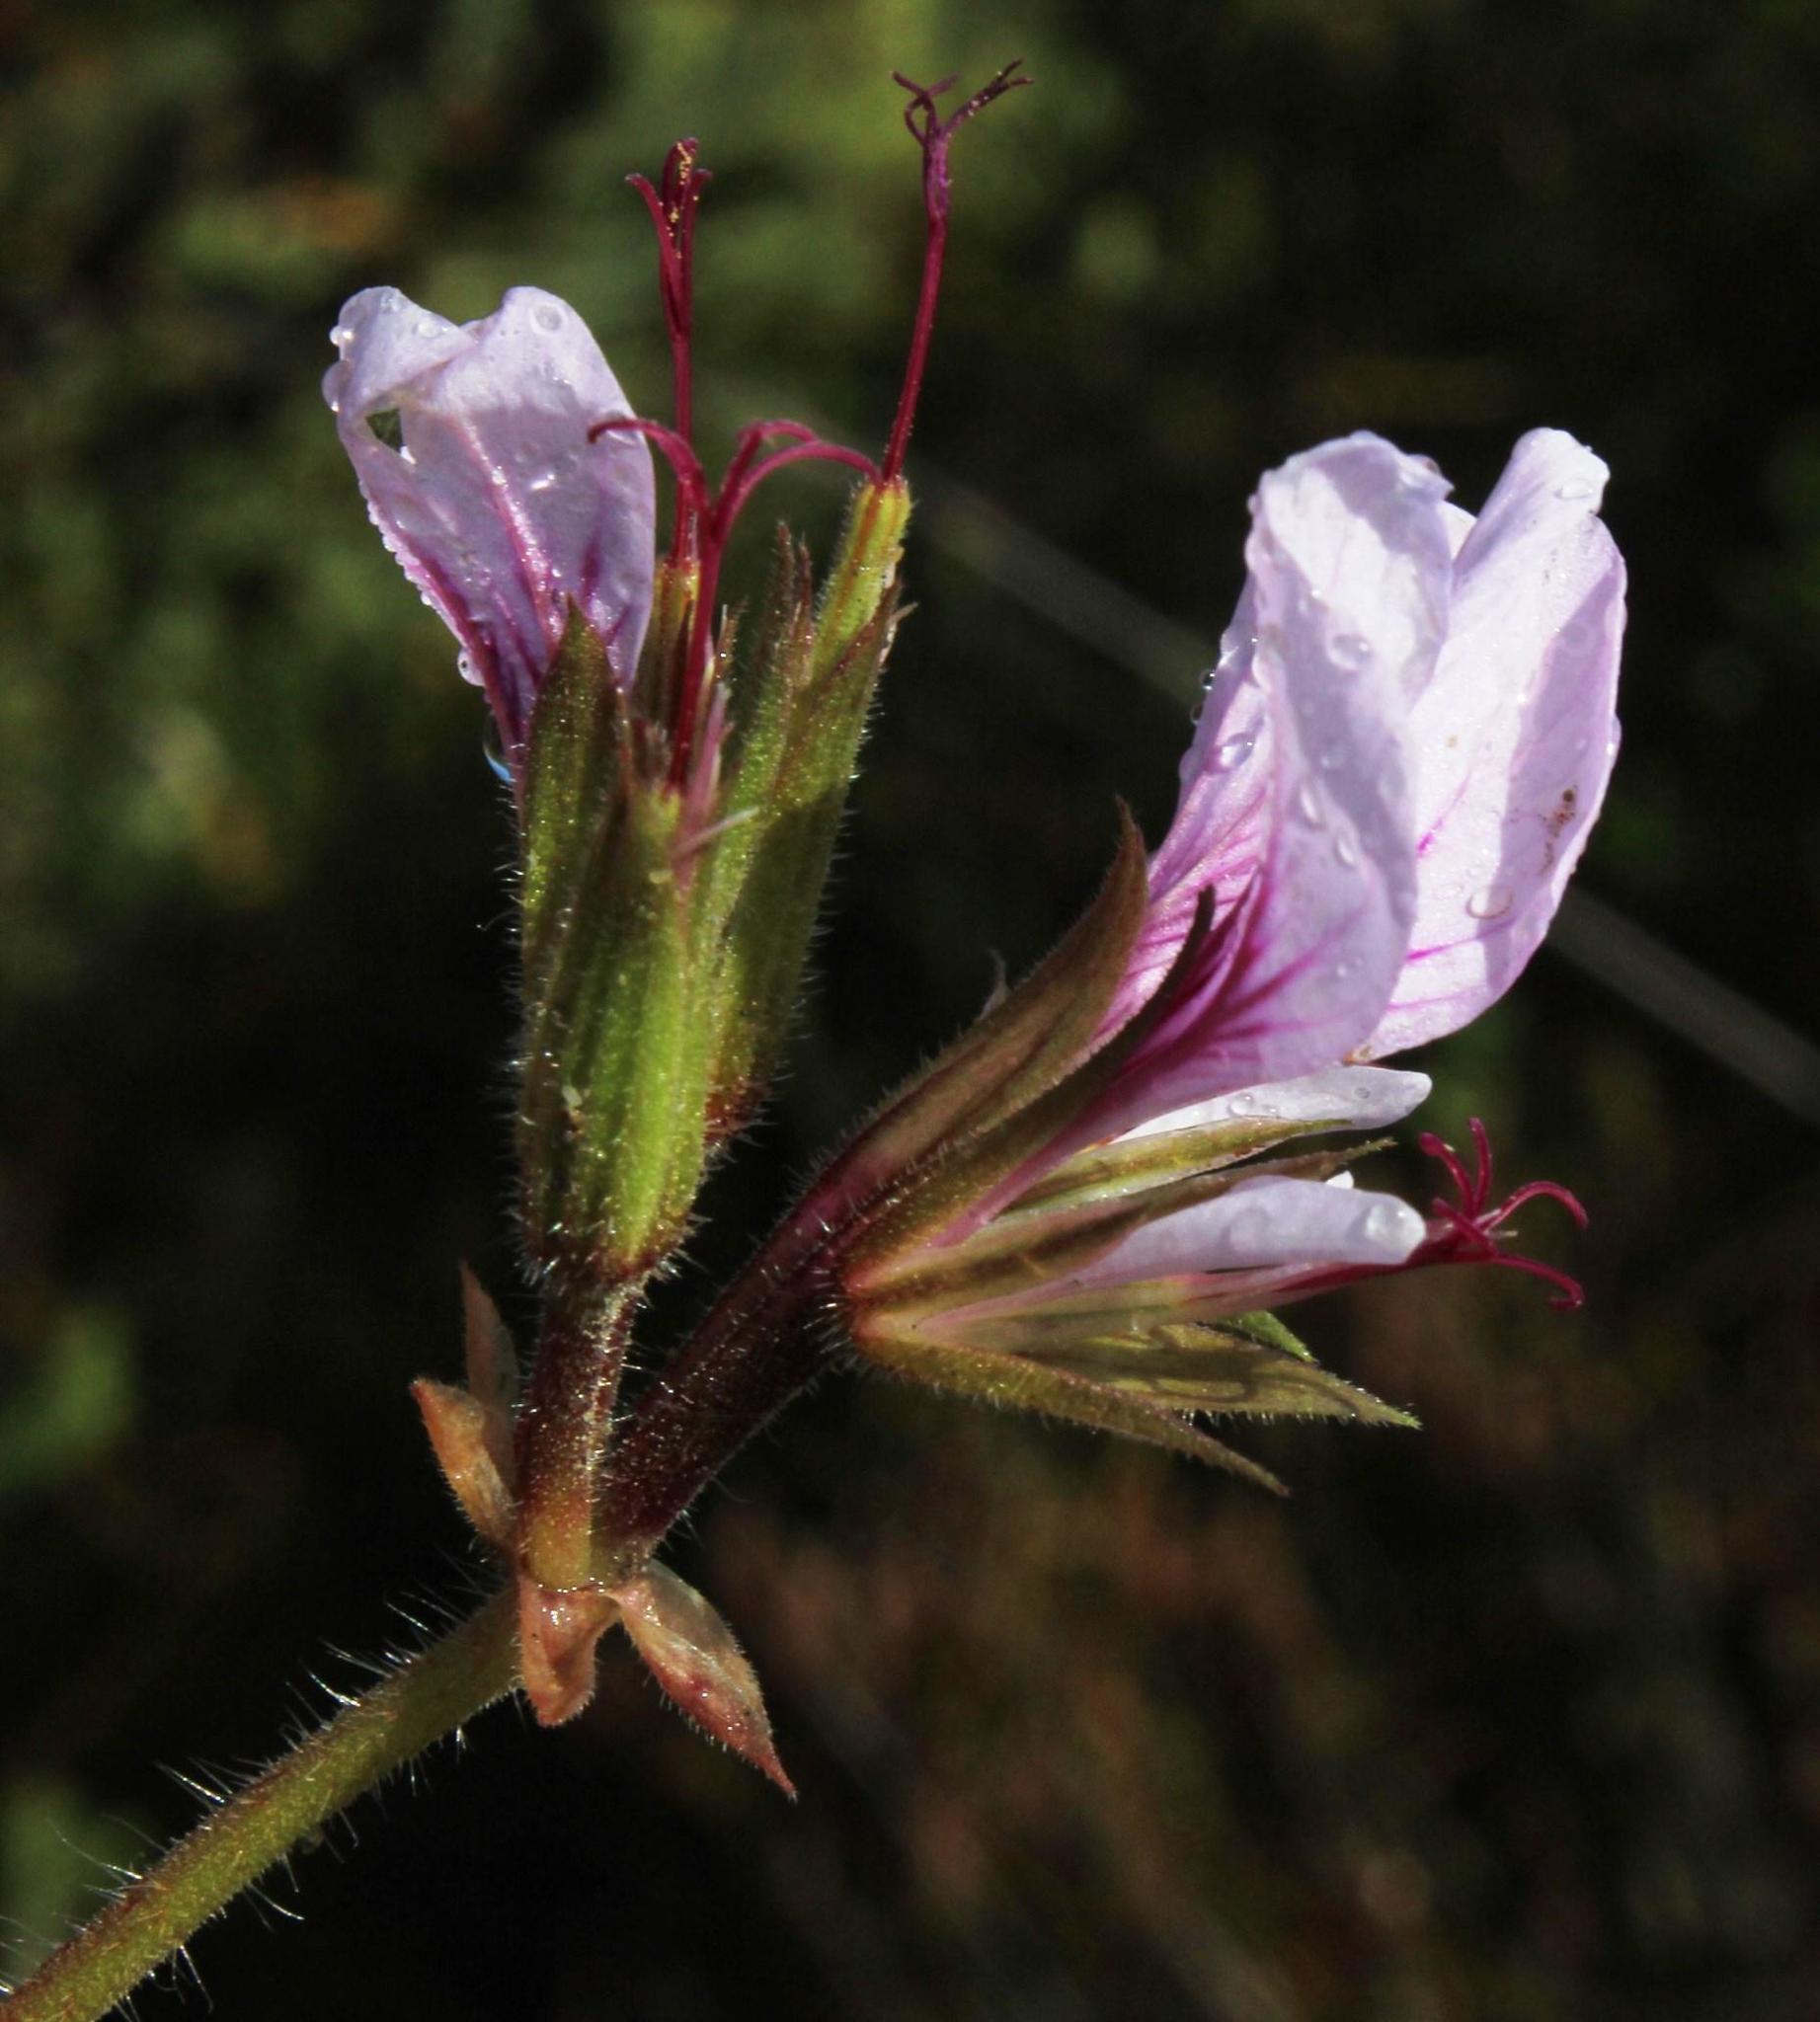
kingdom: Plantae
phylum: Tracheophyta
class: Magnoliopsida
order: Geraniales
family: Geraniaceae
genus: Pelargonium
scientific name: Pelargonium myrrhifolium
